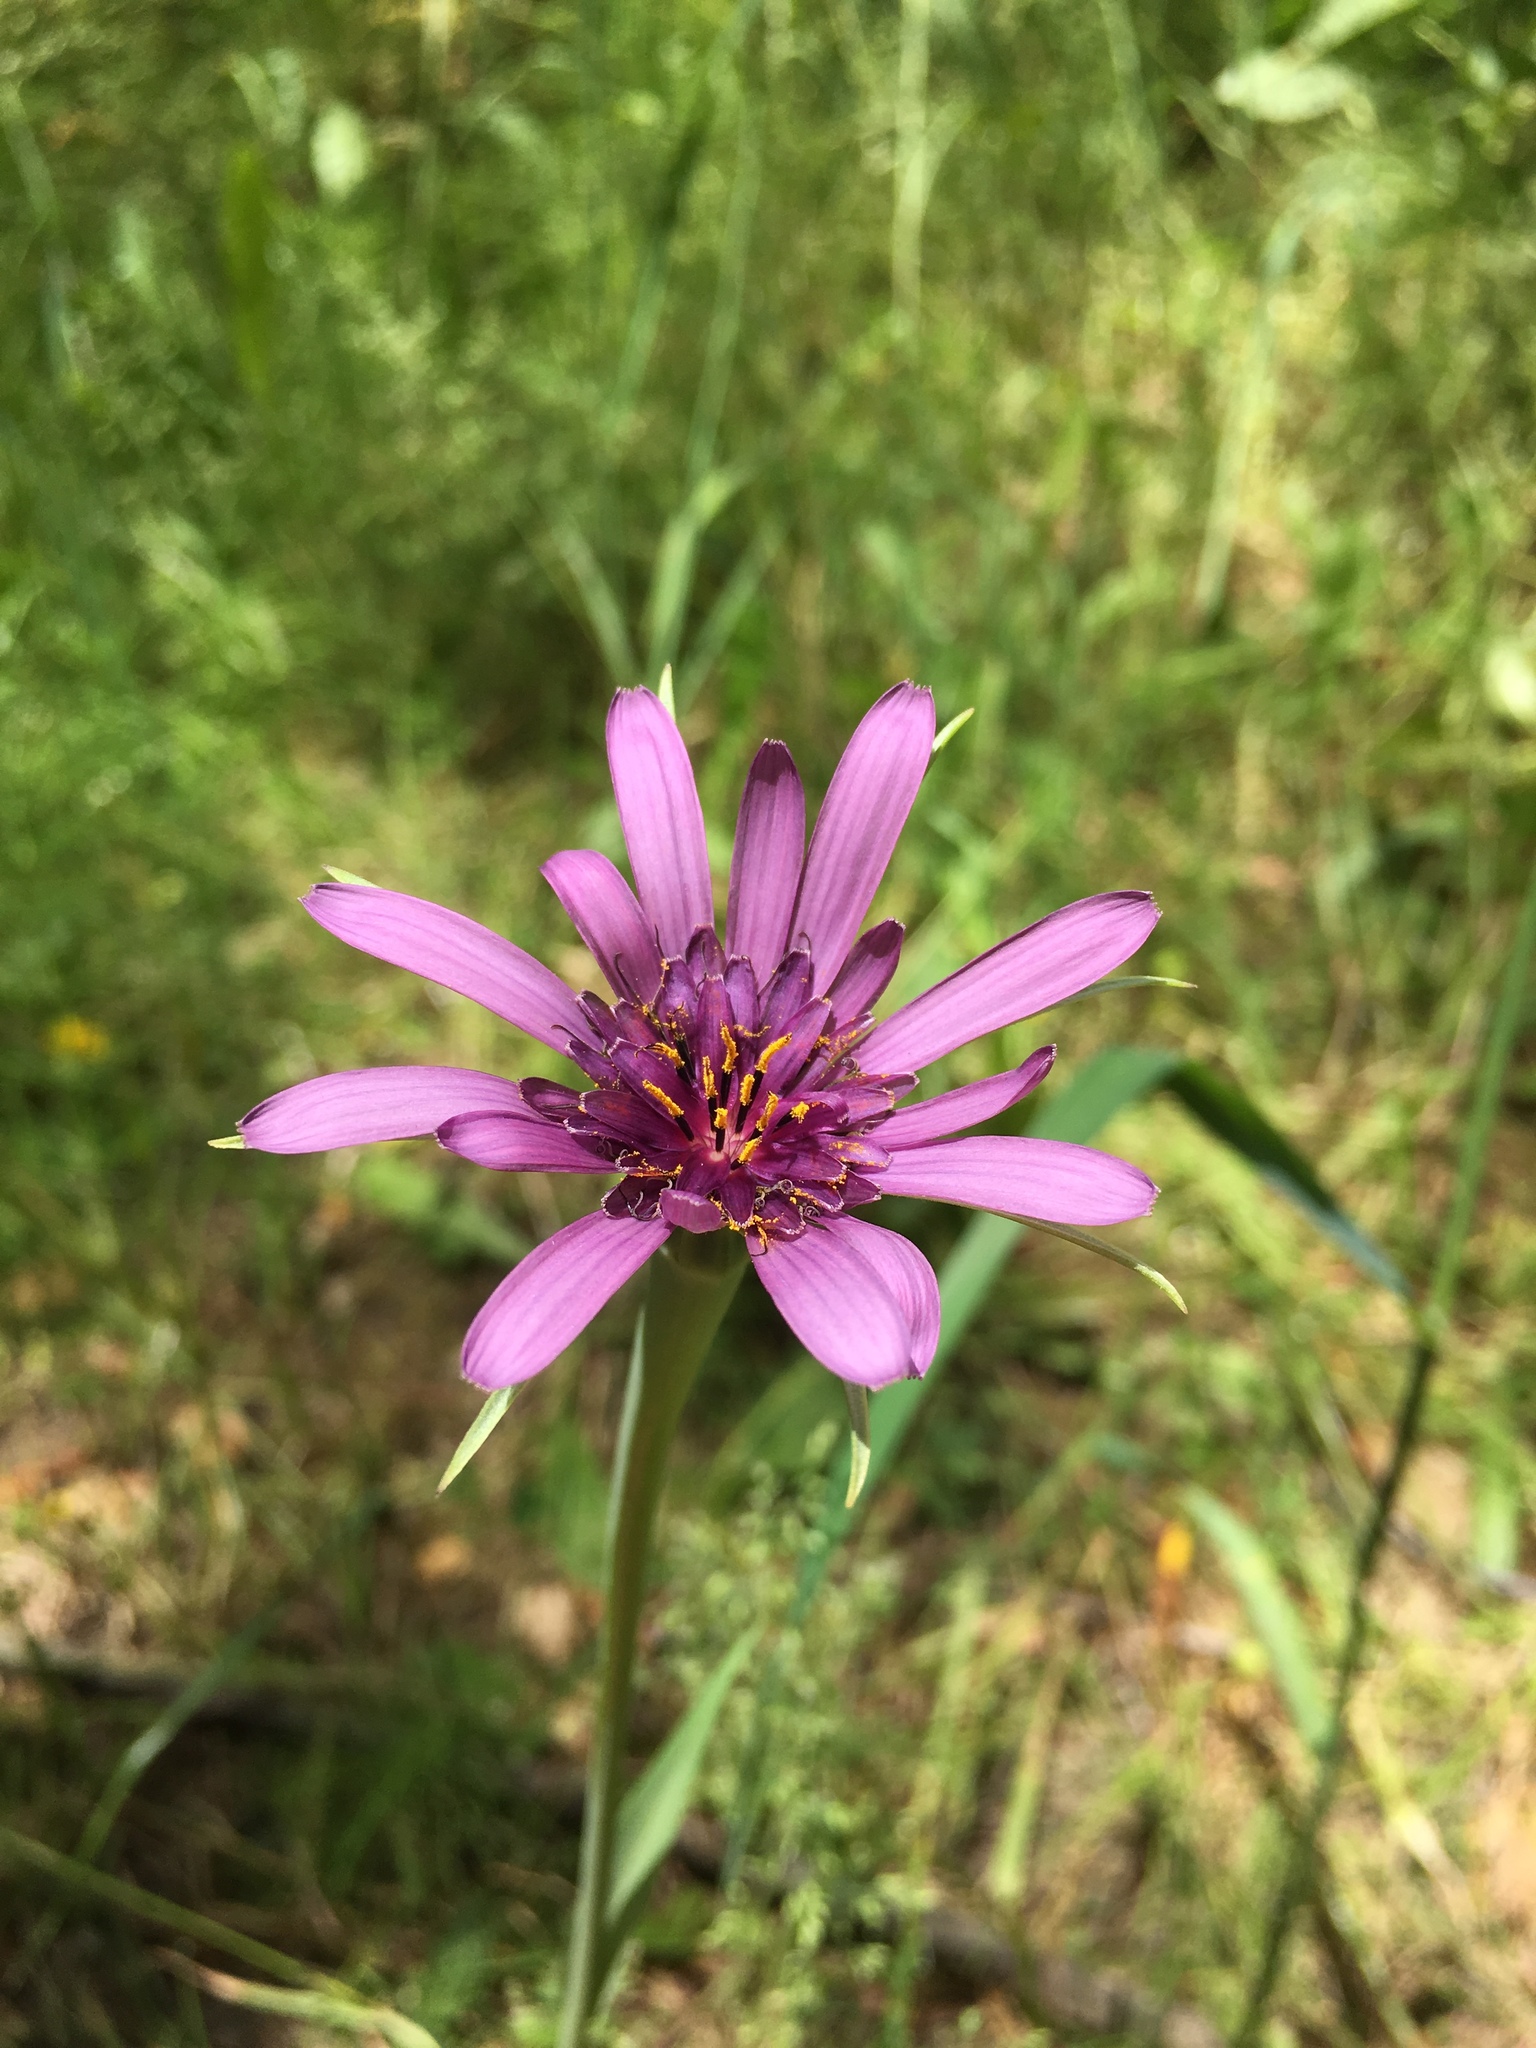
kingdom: Plantae
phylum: Tracheophyta
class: Magnoliopsida
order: Asterales
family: Asteraceae
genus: Tragopogon
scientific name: Tragopogon porrifolius
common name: Salsify
